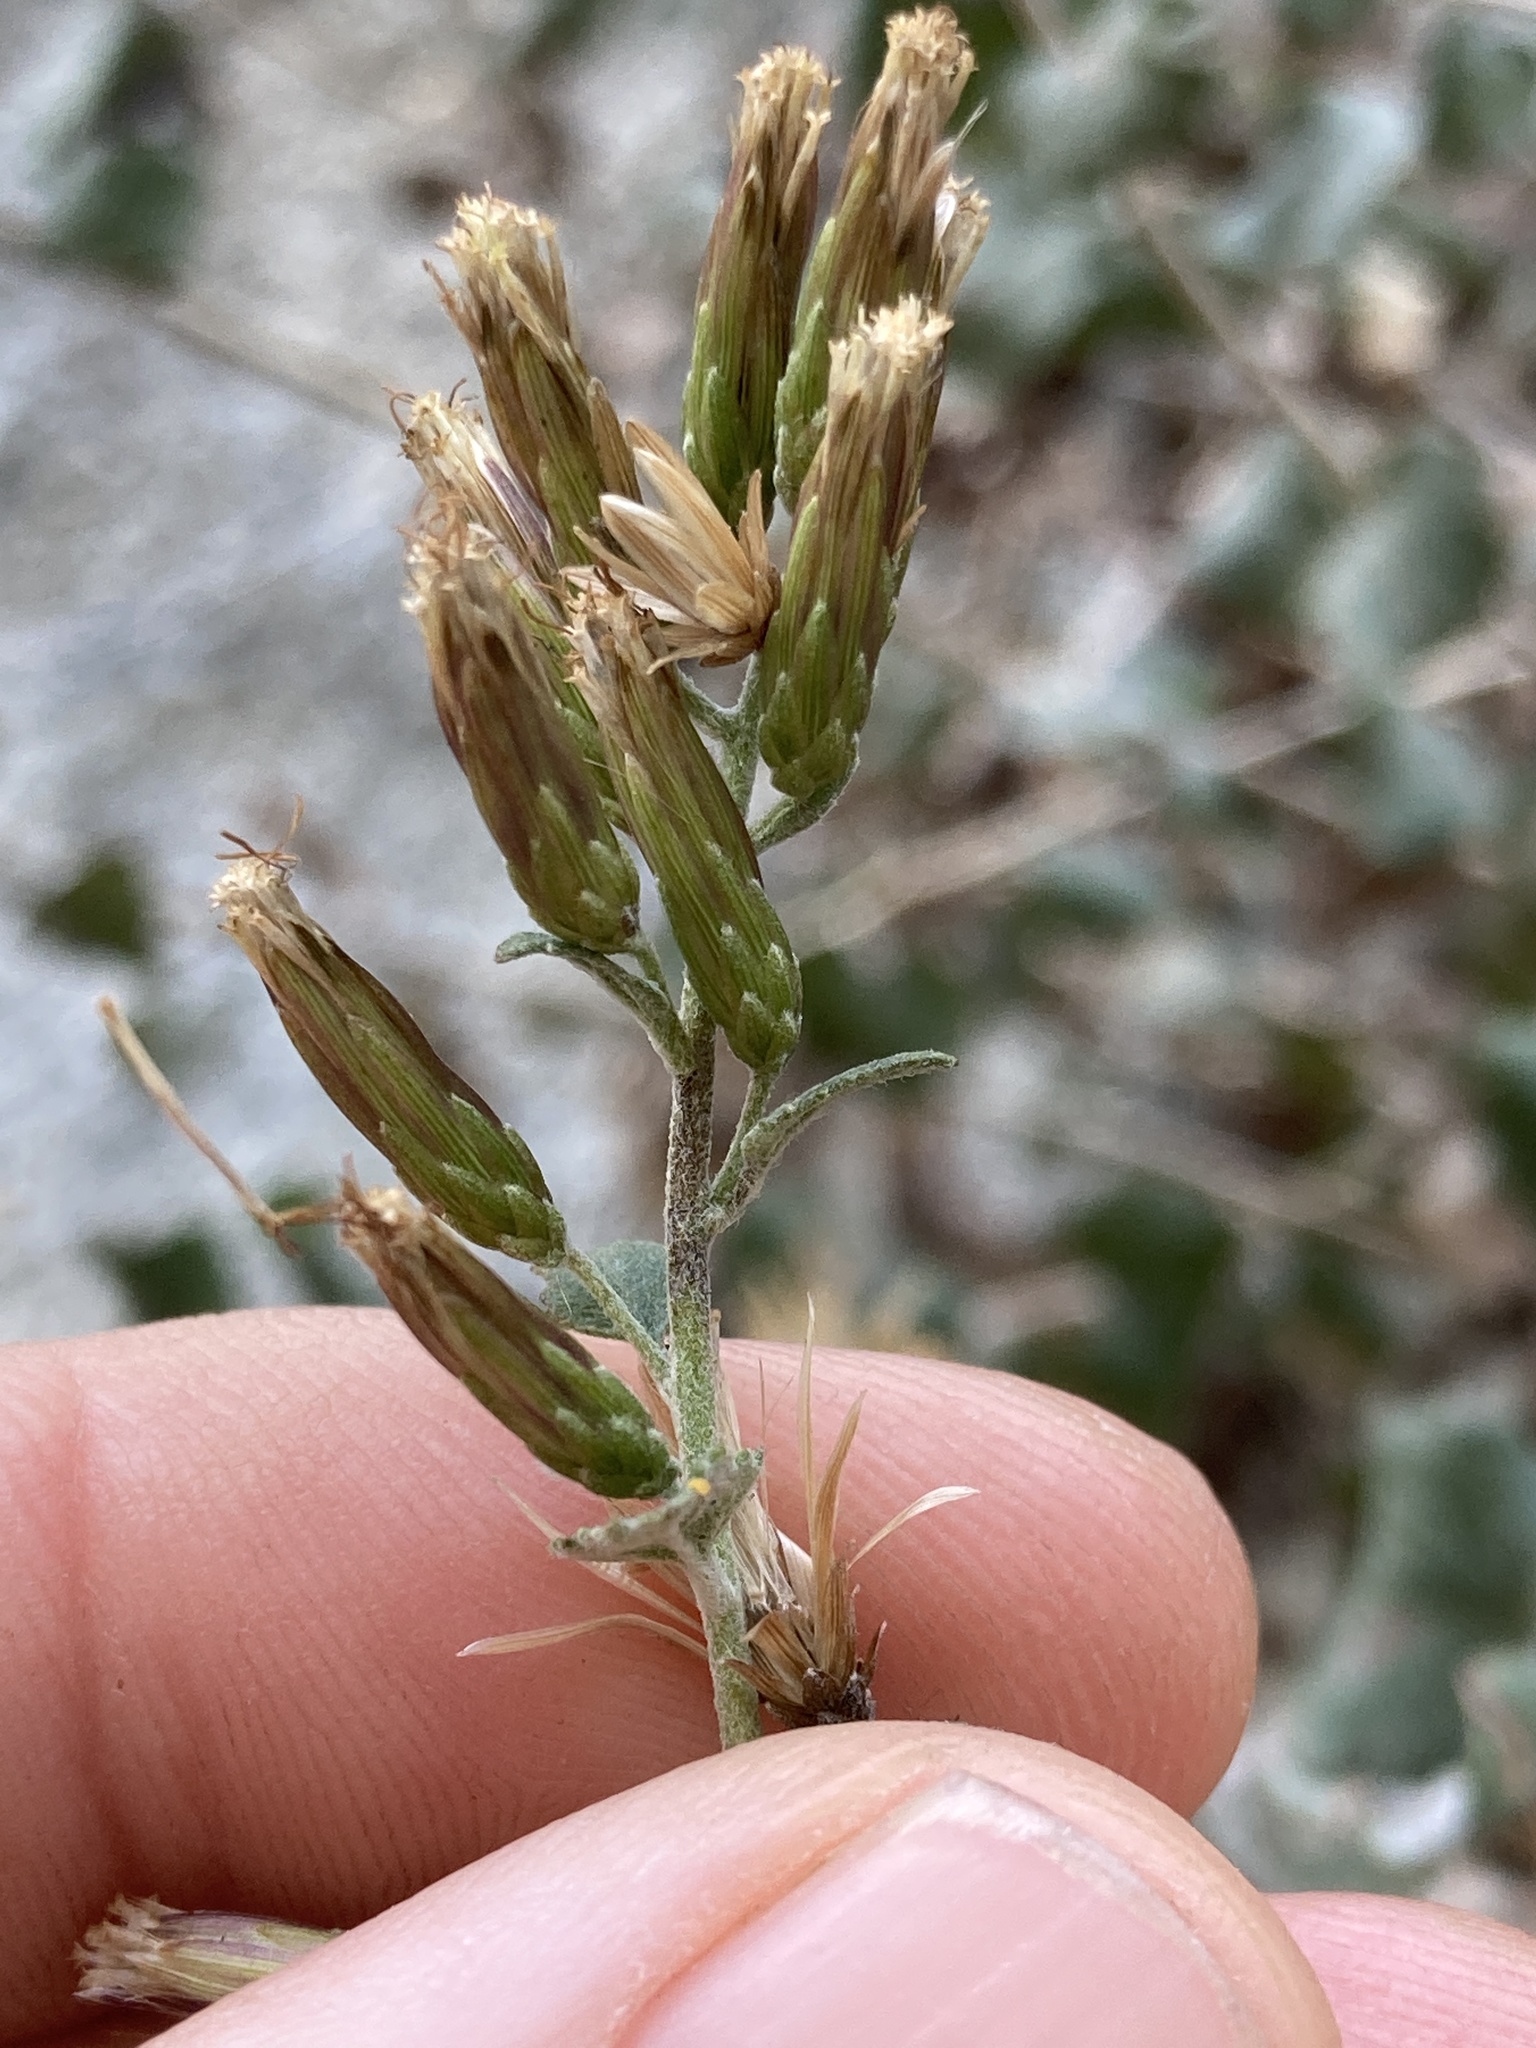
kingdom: Plantae
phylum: Tracheophyta
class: Magnoliopsida
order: Asterales
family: Asteraceae
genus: Brickellia
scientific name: Brickellia californica
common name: California brickellbush
